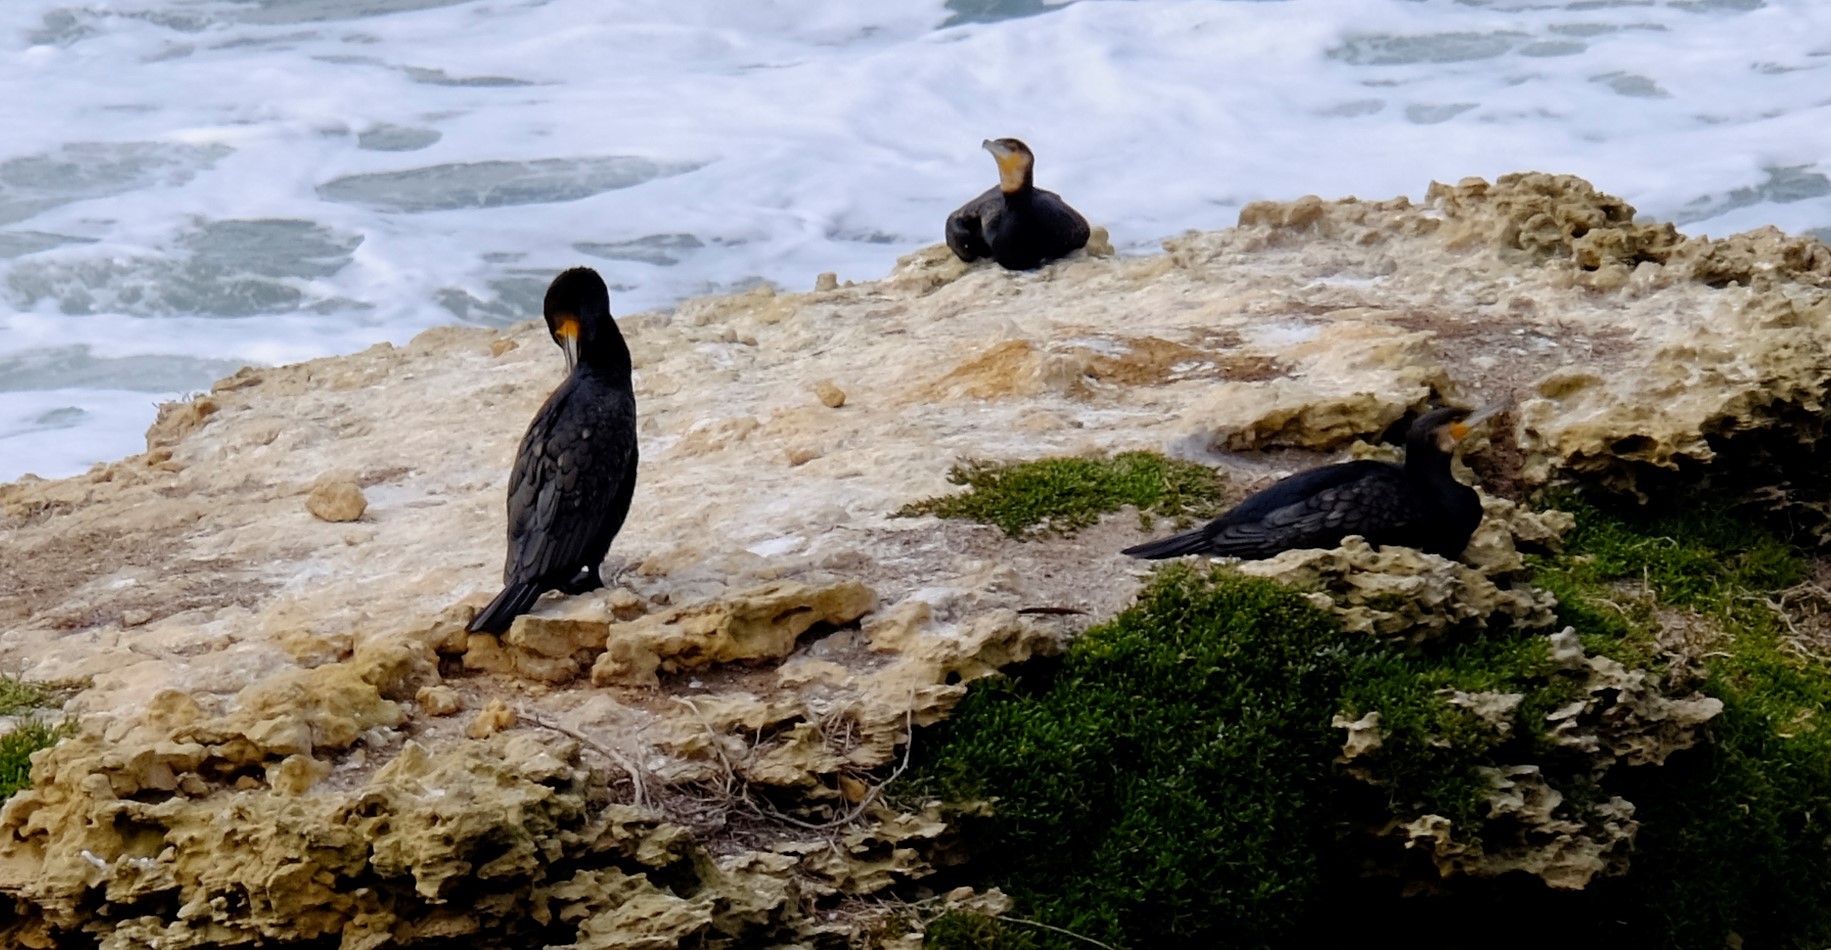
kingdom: Animalia
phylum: Chordata
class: Aves
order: Suliformes
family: Phalacrocoracidae
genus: Phalacrocorax
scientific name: Phalacrocorax carbo
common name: Great cormorant
